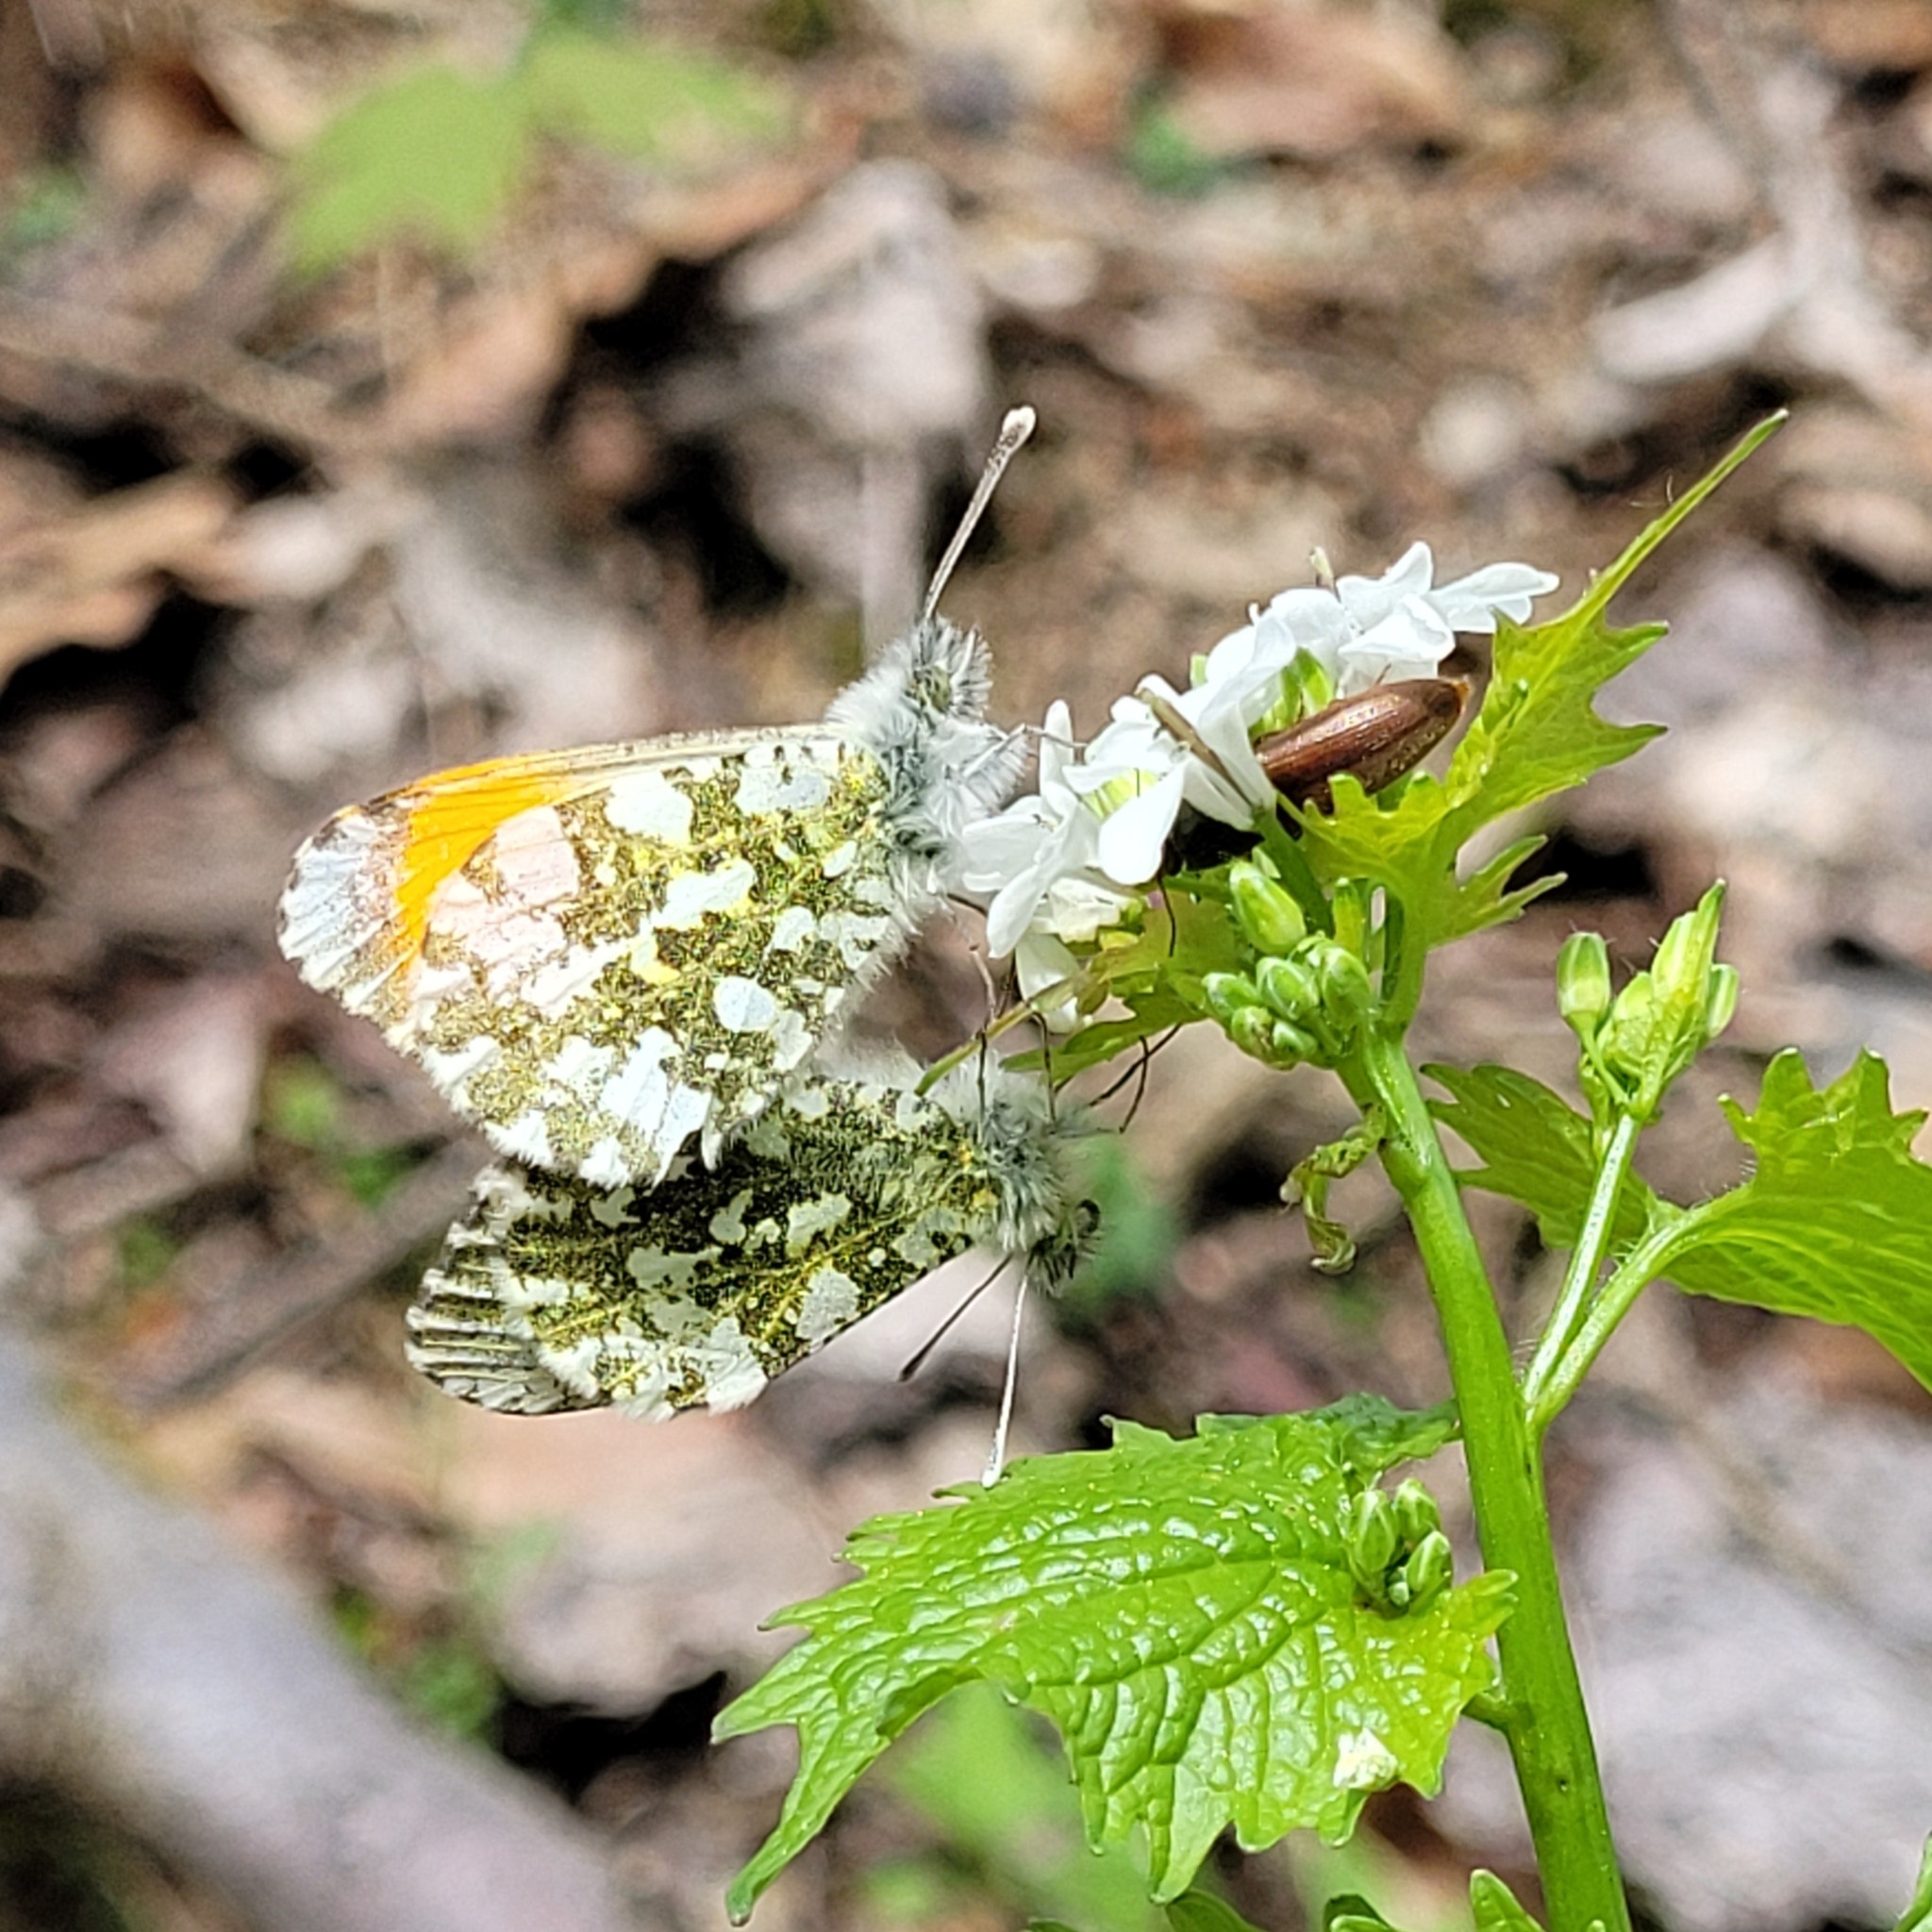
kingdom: Animalia
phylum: Arthropoda
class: Insecta
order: Lepidoptera
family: Pieridae
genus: Anthocharis
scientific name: Anthocharis cardamines
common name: Orange-tip
